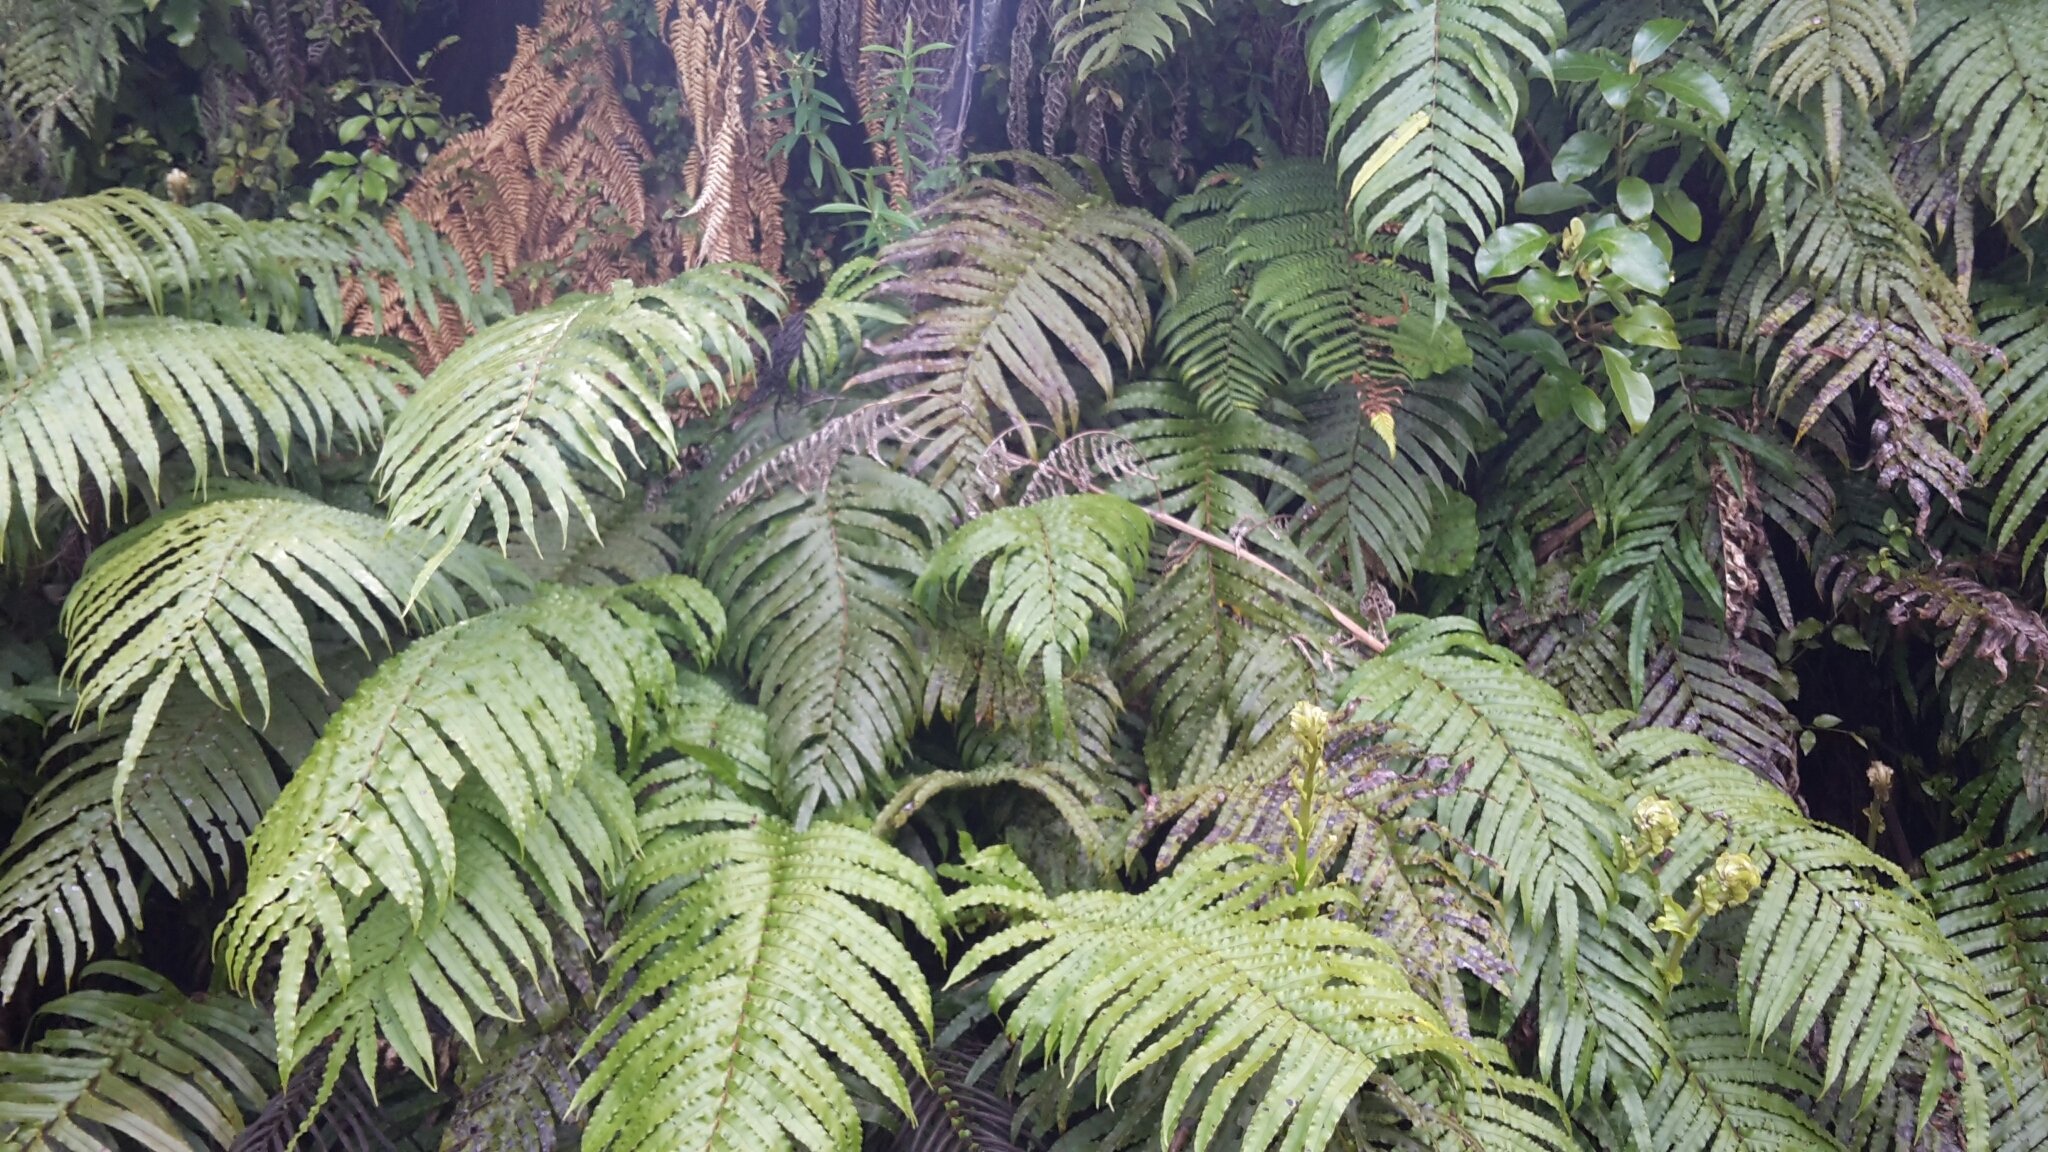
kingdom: Plantae
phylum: Tracheophyta
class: Polypodiopsida
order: Polypodiales
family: Blechnaceae
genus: Parablechnum
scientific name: Parablechnum novae-zelandiae
